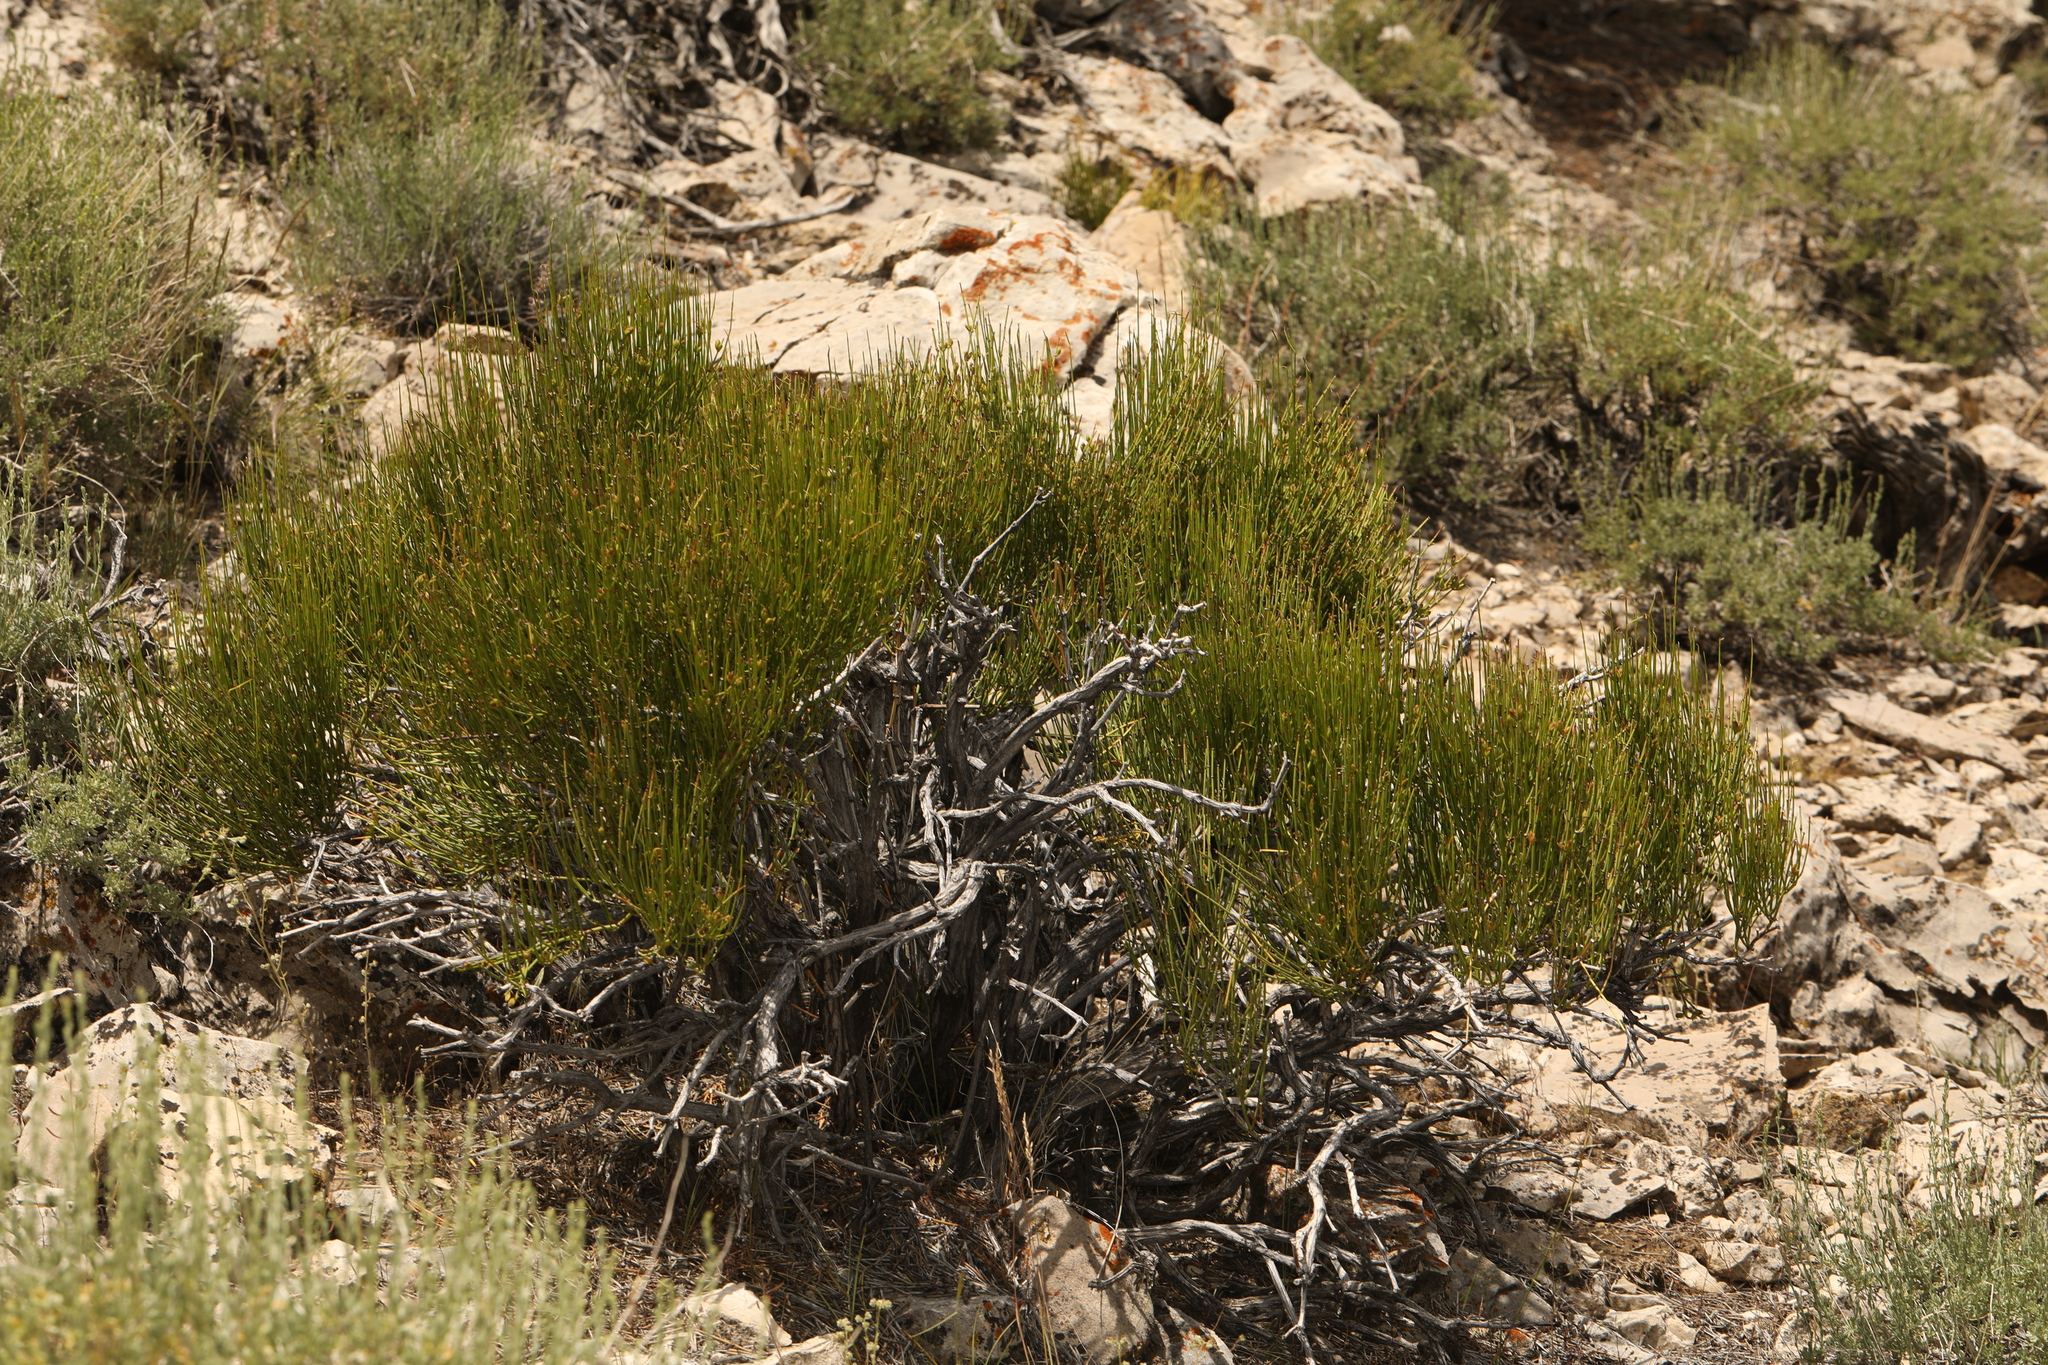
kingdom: Plantae
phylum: Tracheophyta
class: Gnetopsida
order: Ephedrales
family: Ephedraceae
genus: Ephedra
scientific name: Ephedra viridis
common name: Green ephedra
